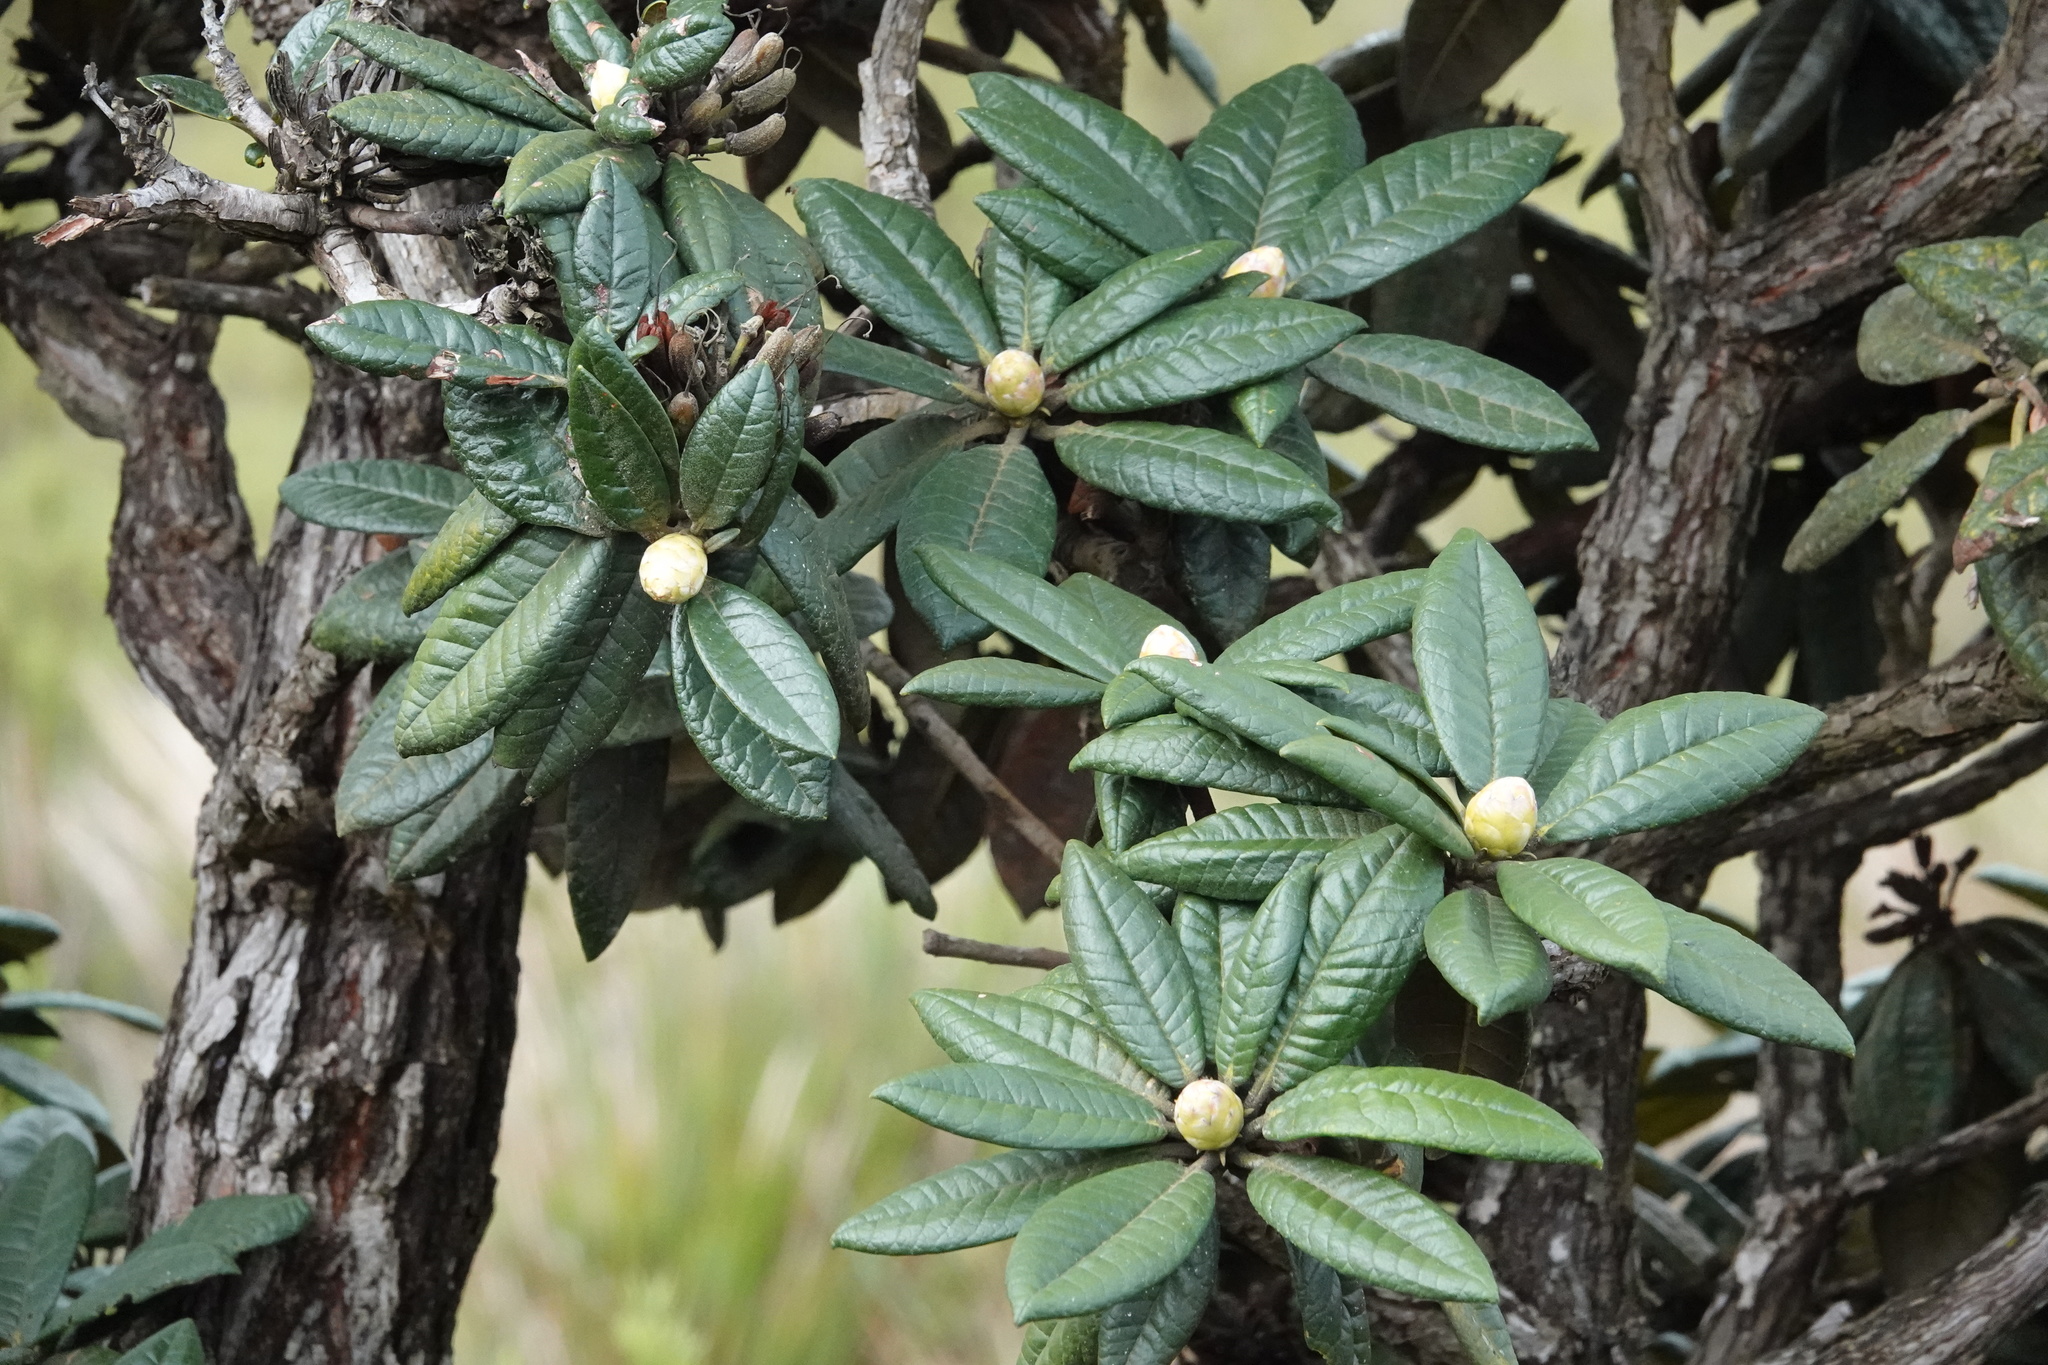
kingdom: Plantae
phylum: Tracheophyta
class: Magnoliopsida
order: Ericales
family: Ericaceae
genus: Rhododendron
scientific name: Rhododendron arboreum
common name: Tree rhododendron
